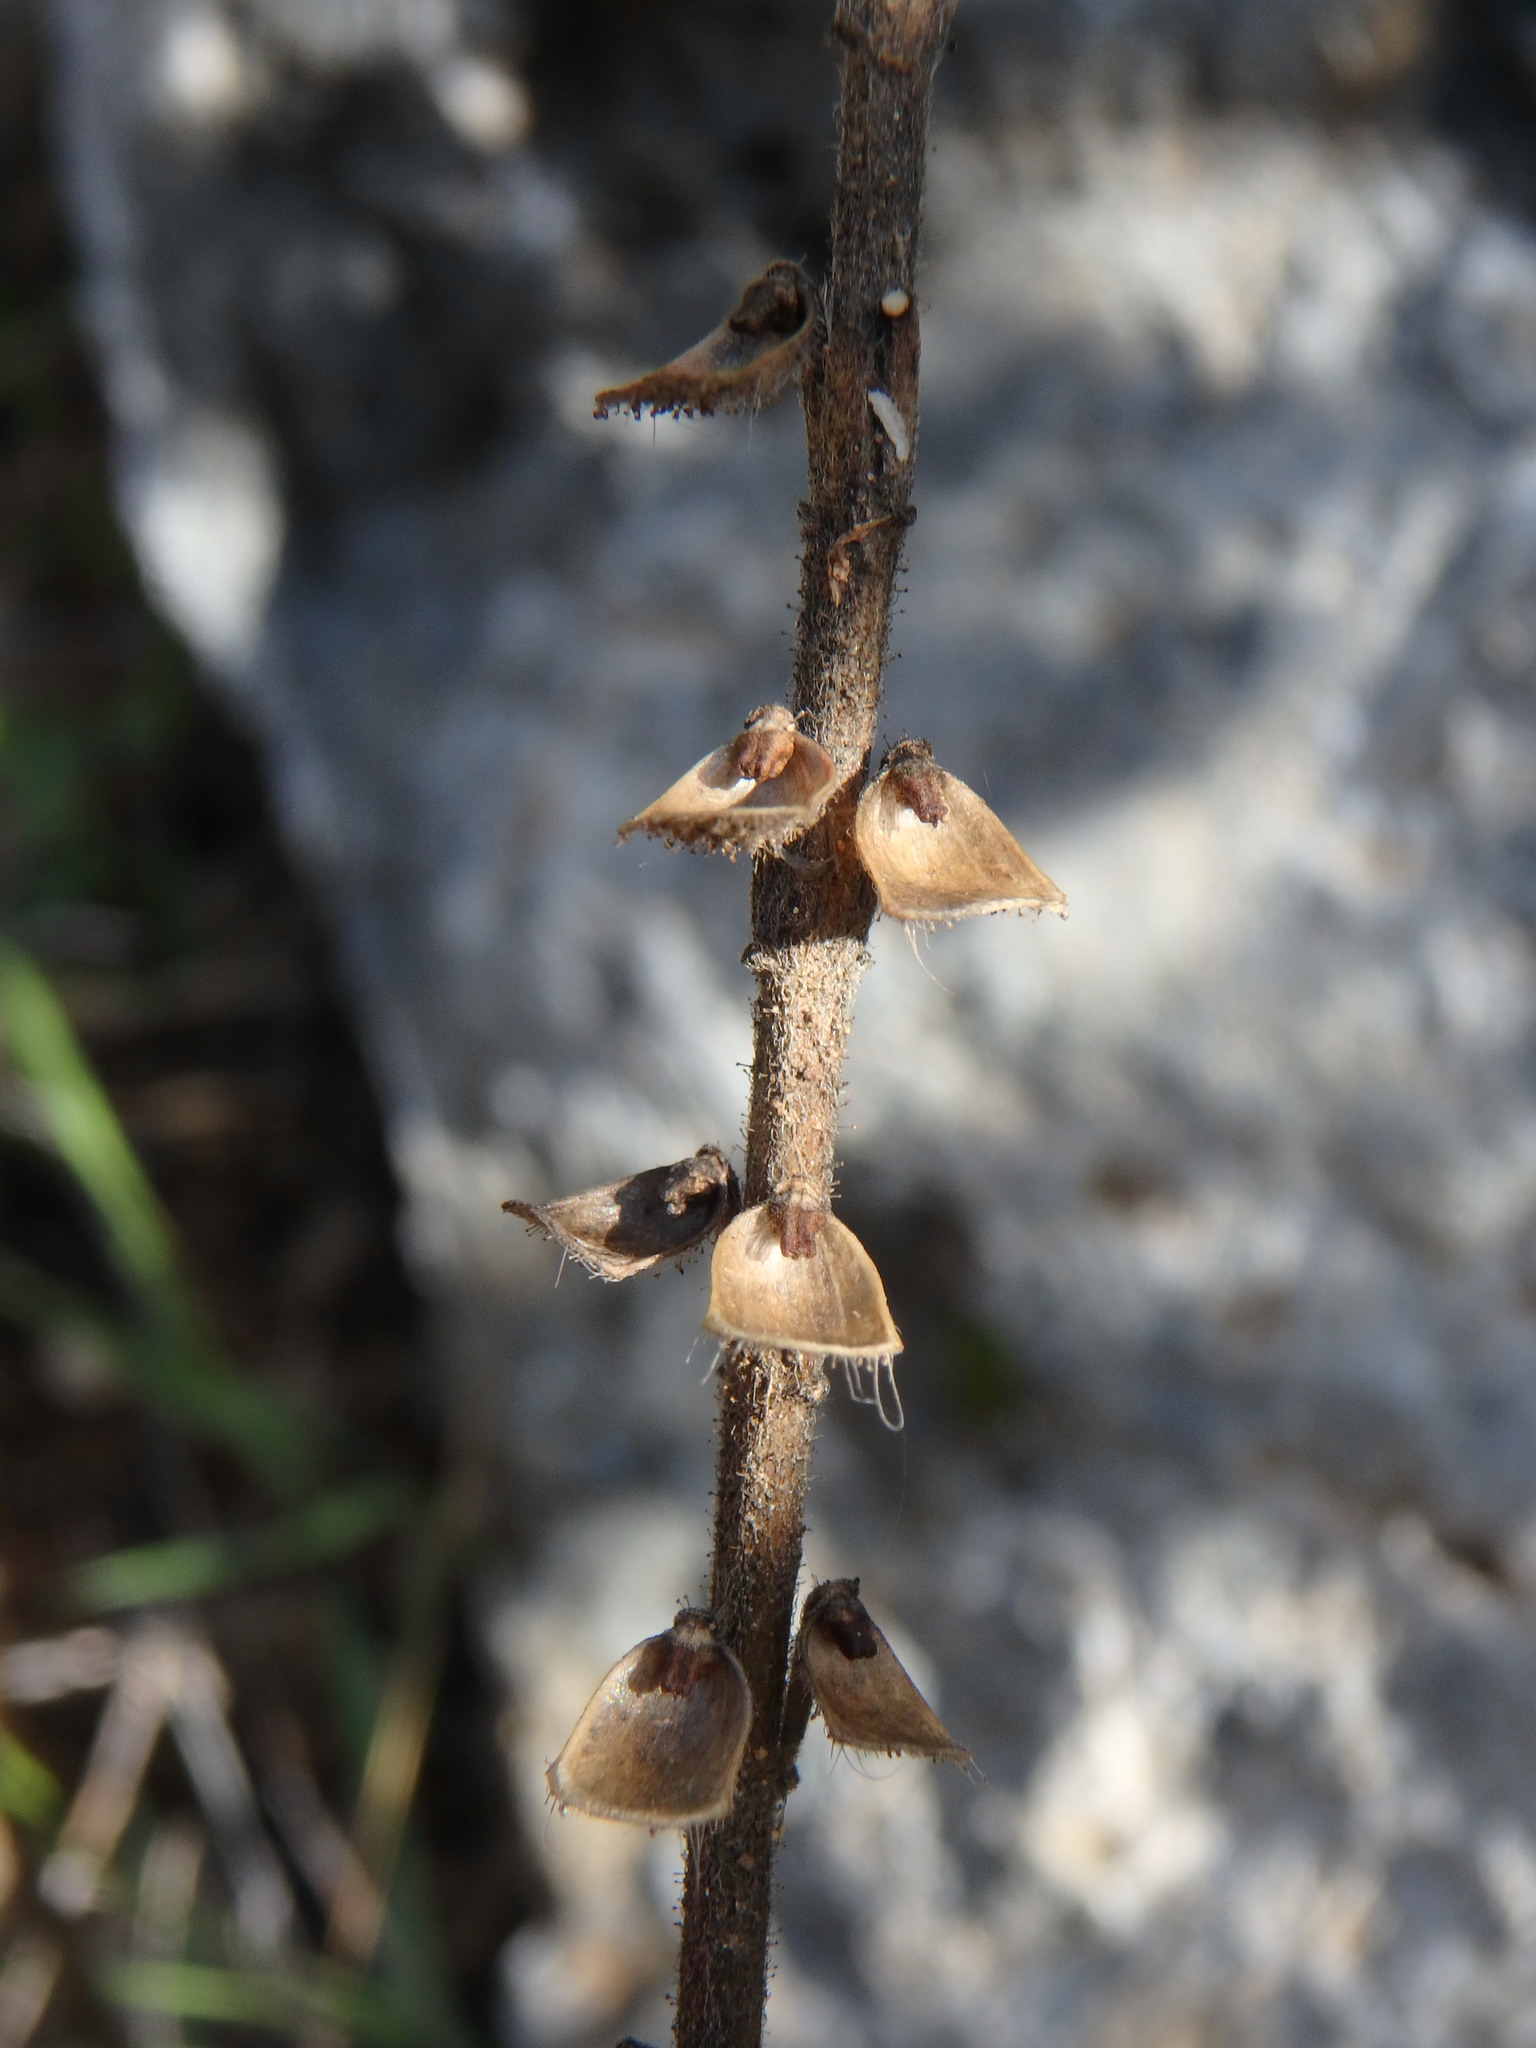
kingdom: Plantae
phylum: Tracheophyta
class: Magnoliopsida
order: Lamiales
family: Lamiaceae
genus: Scutellaria
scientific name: Scutellaria sibthorpii
